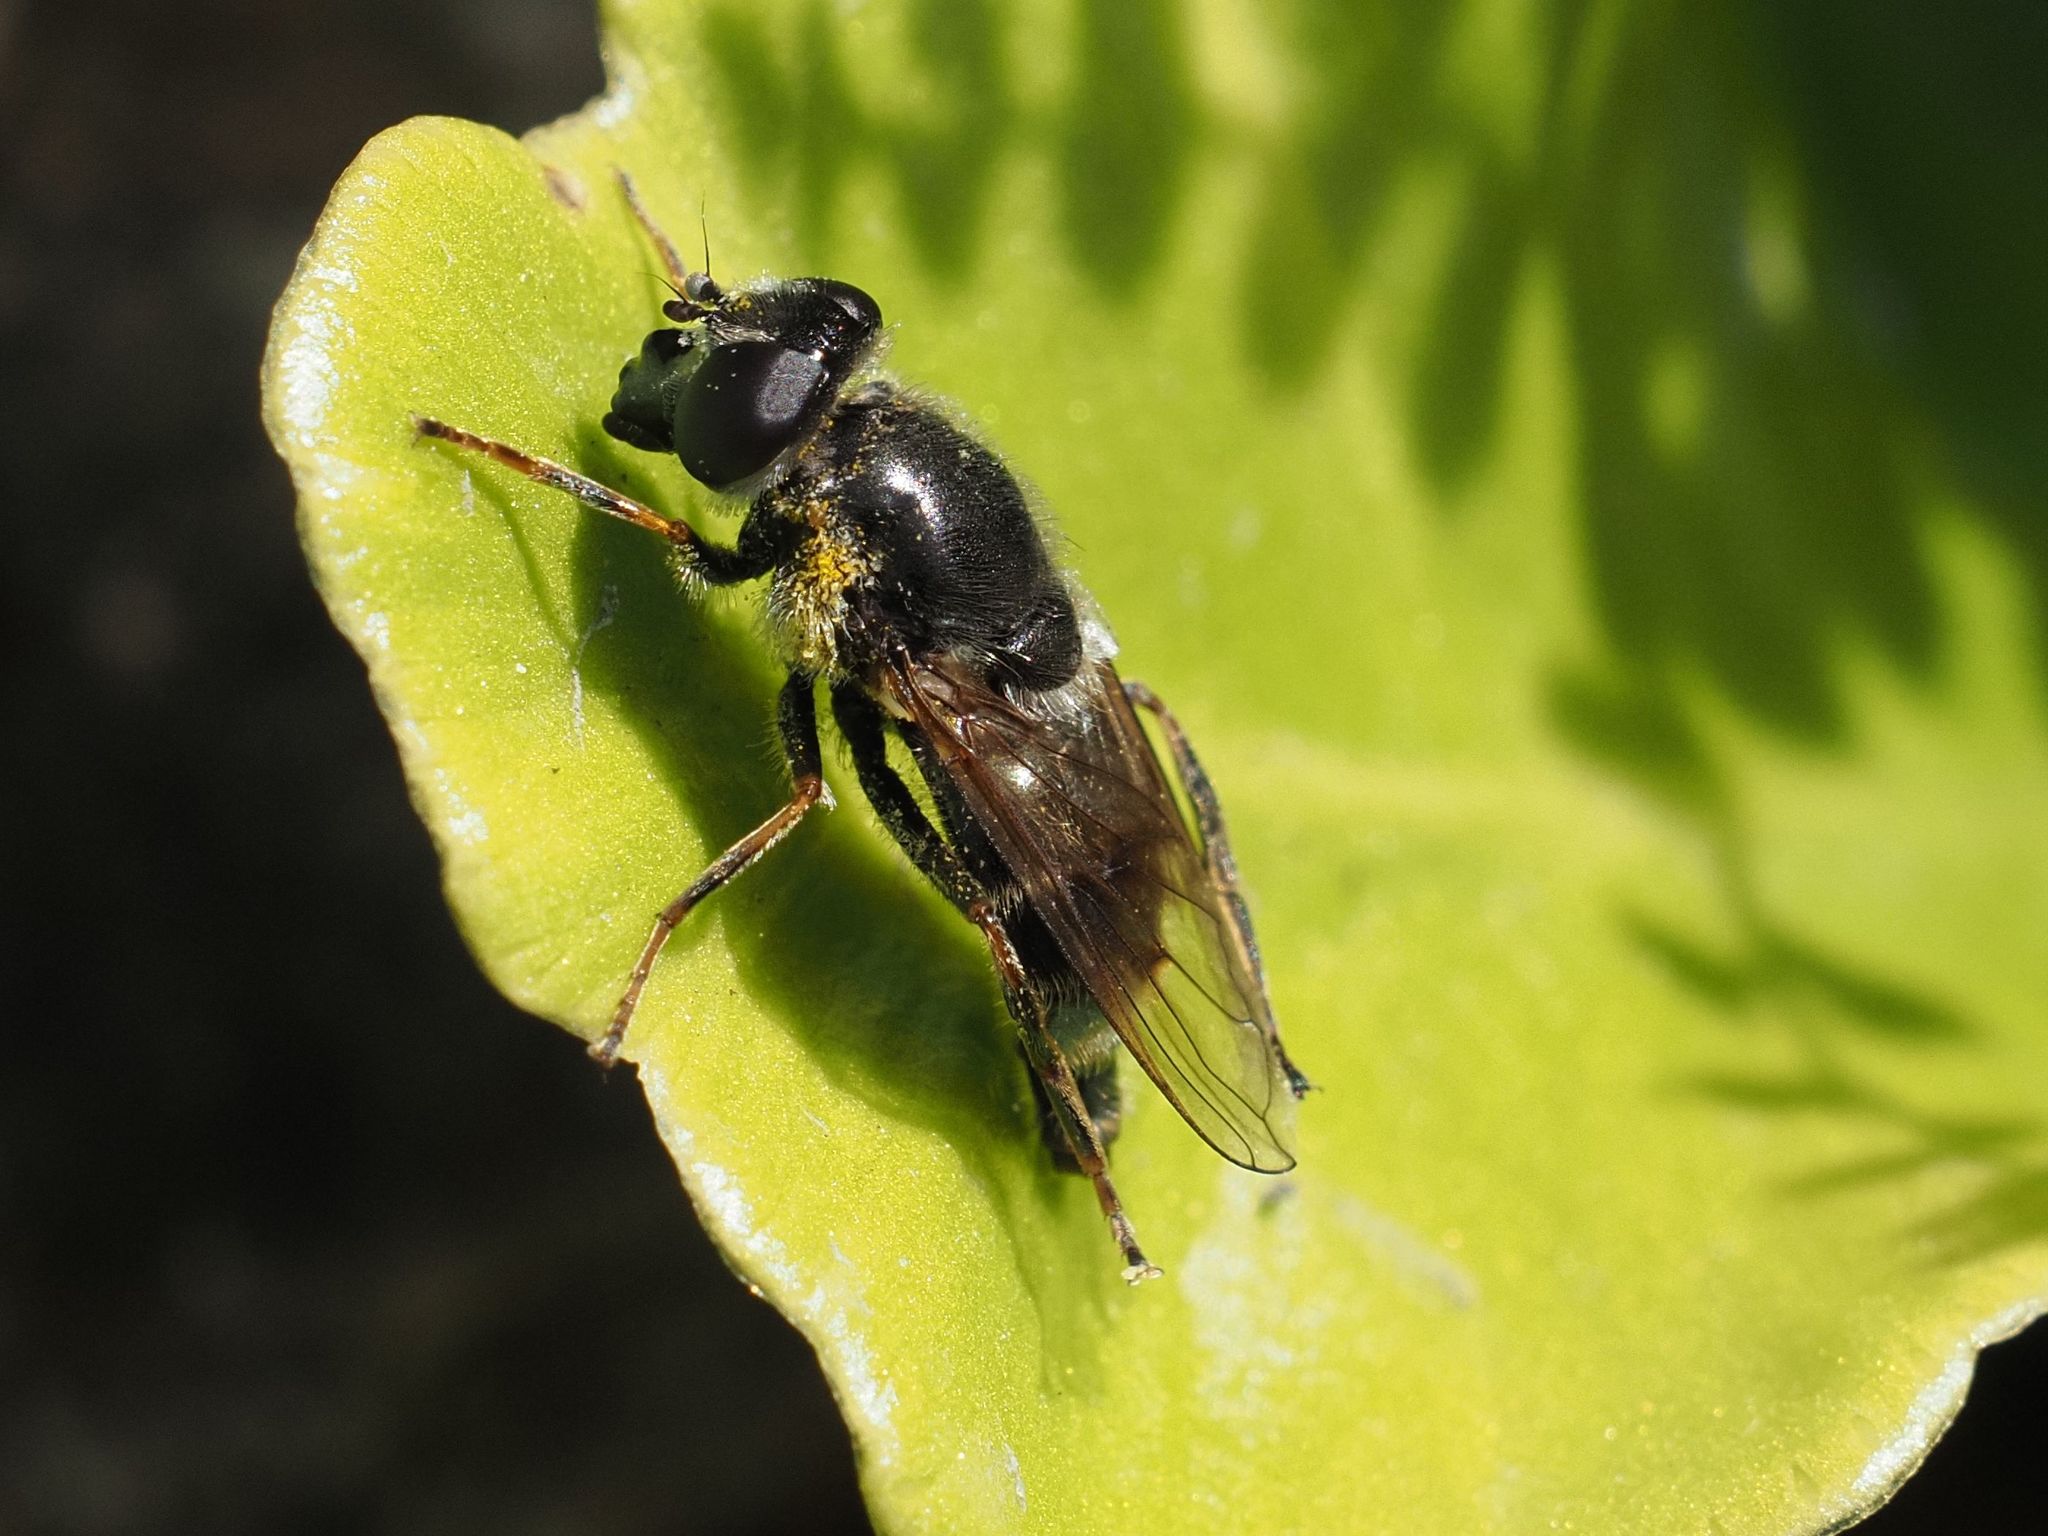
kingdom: Animalia
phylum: Arthropoda
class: Insecta
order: Diptera
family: Syrphidae
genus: Cheilosia
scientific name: Cheilosia caerulescens
